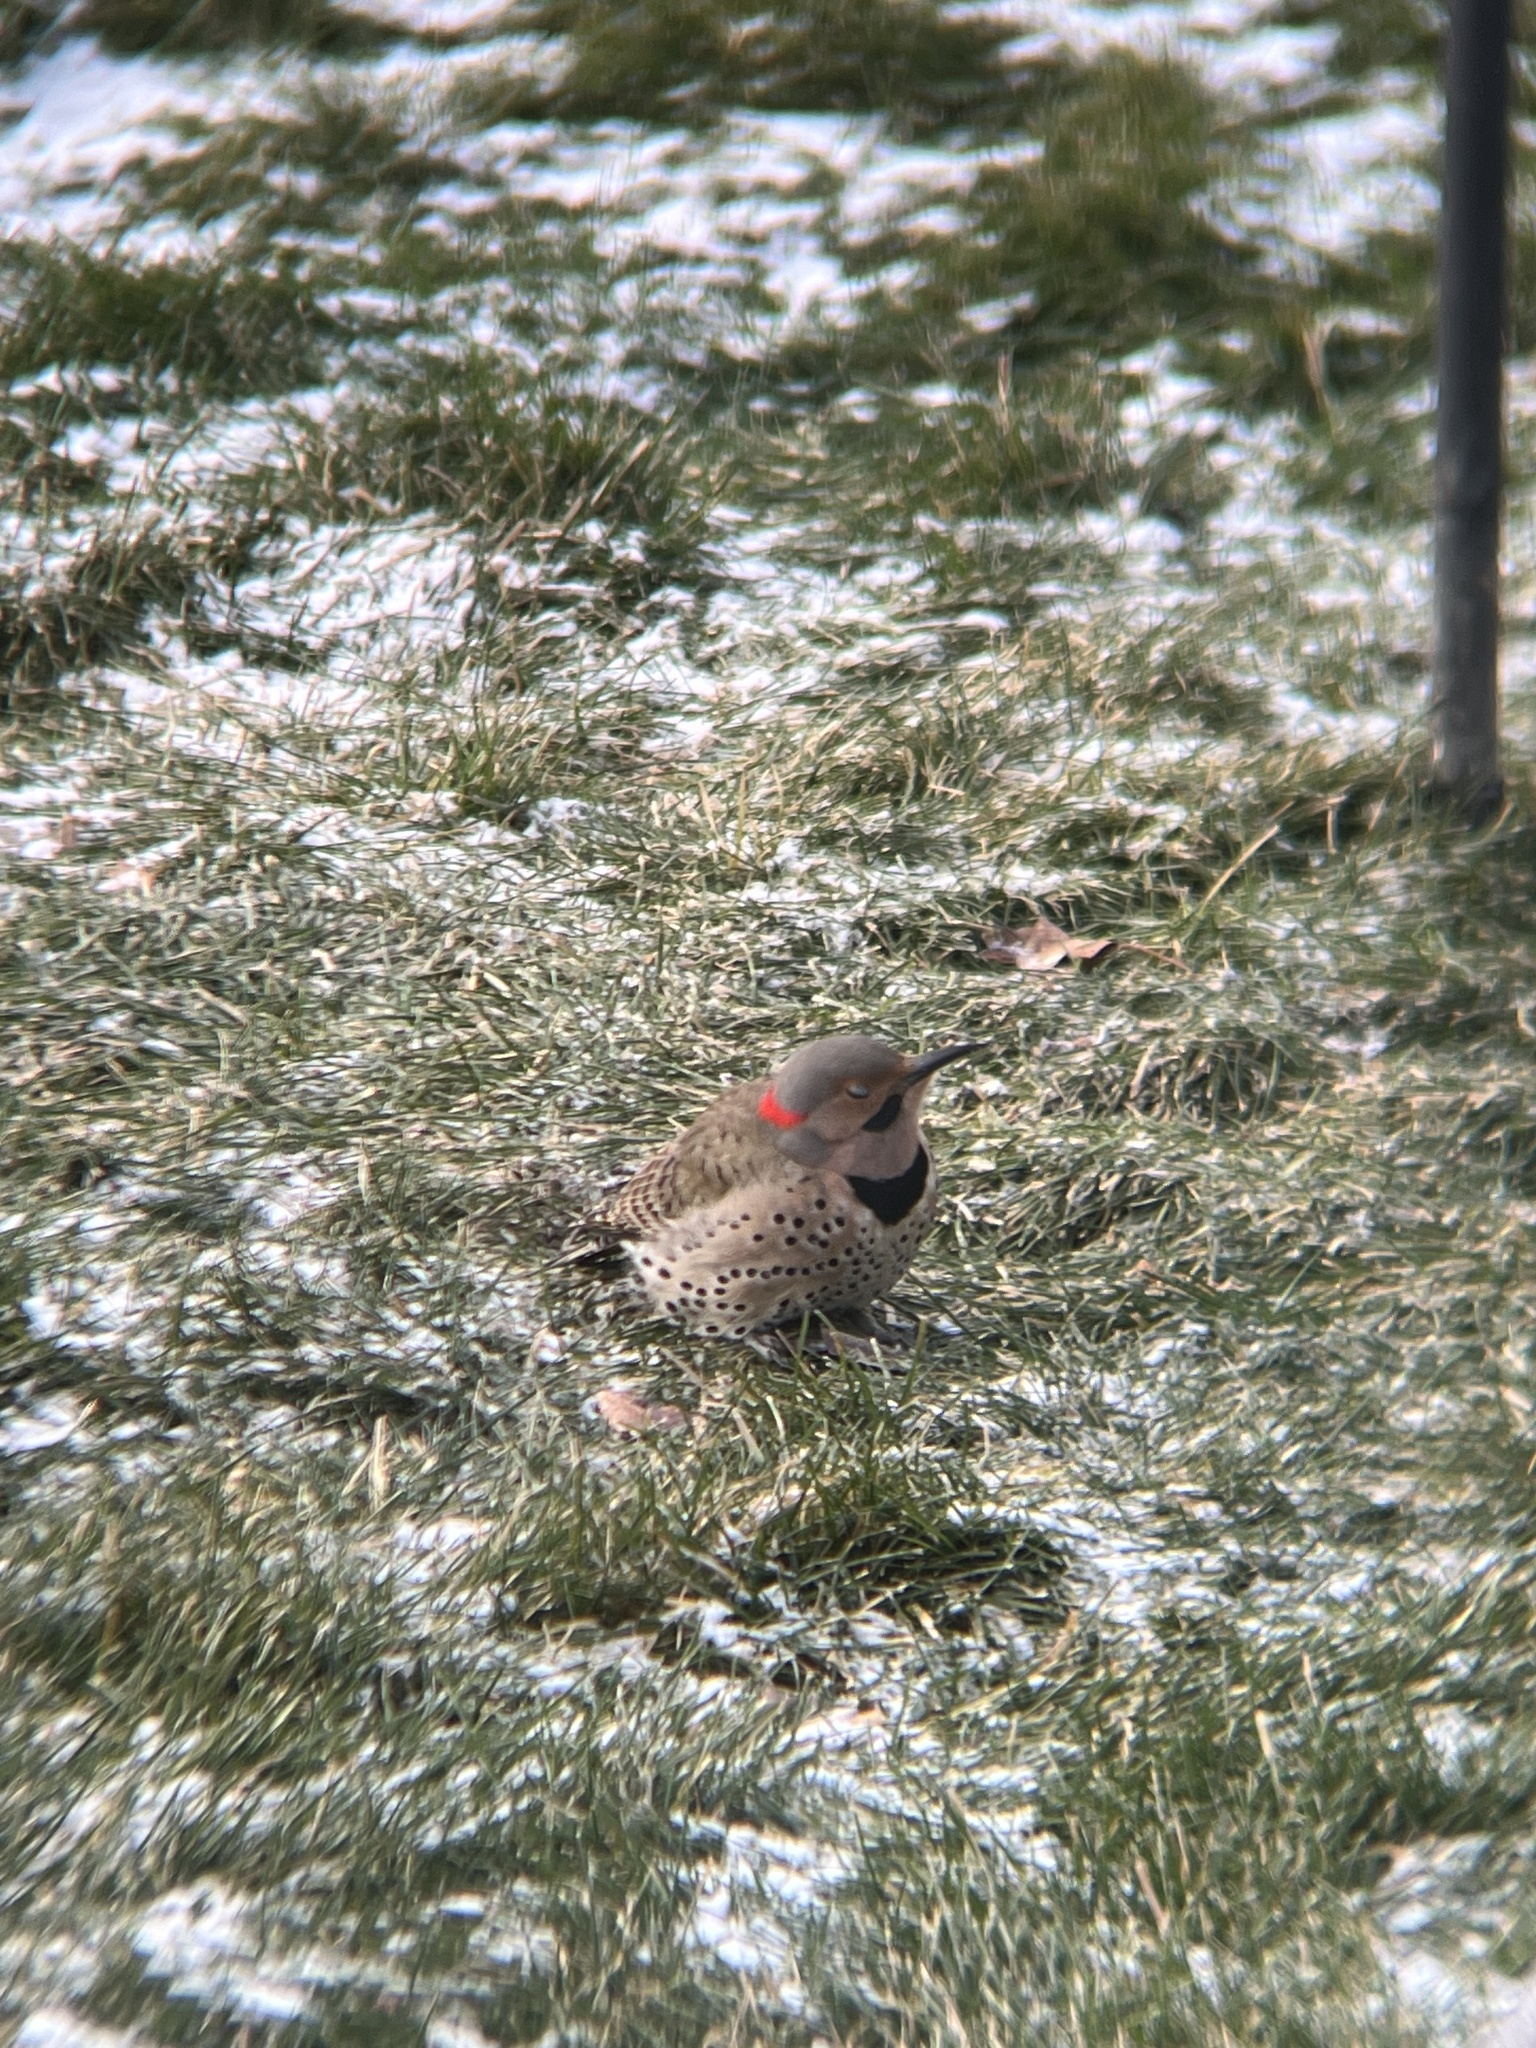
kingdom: Animalia
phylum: Chordata
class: Aves
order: Piciformes
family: Picidae
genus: Colaptes
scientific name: Colaptes auratus
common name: Northern flicker
